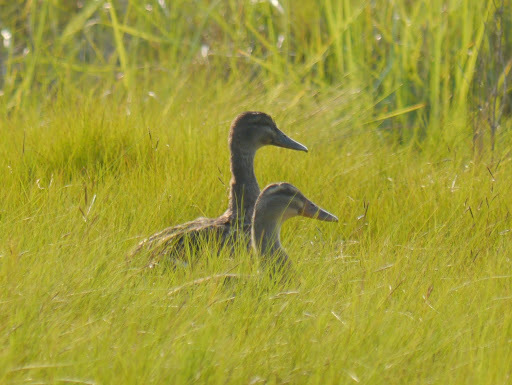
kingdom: Animalia
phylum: Chordata
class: Aves
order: Anseriformes
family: Anatidae
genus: Anas
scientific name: Anas platyrhynchos
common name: Mallard
